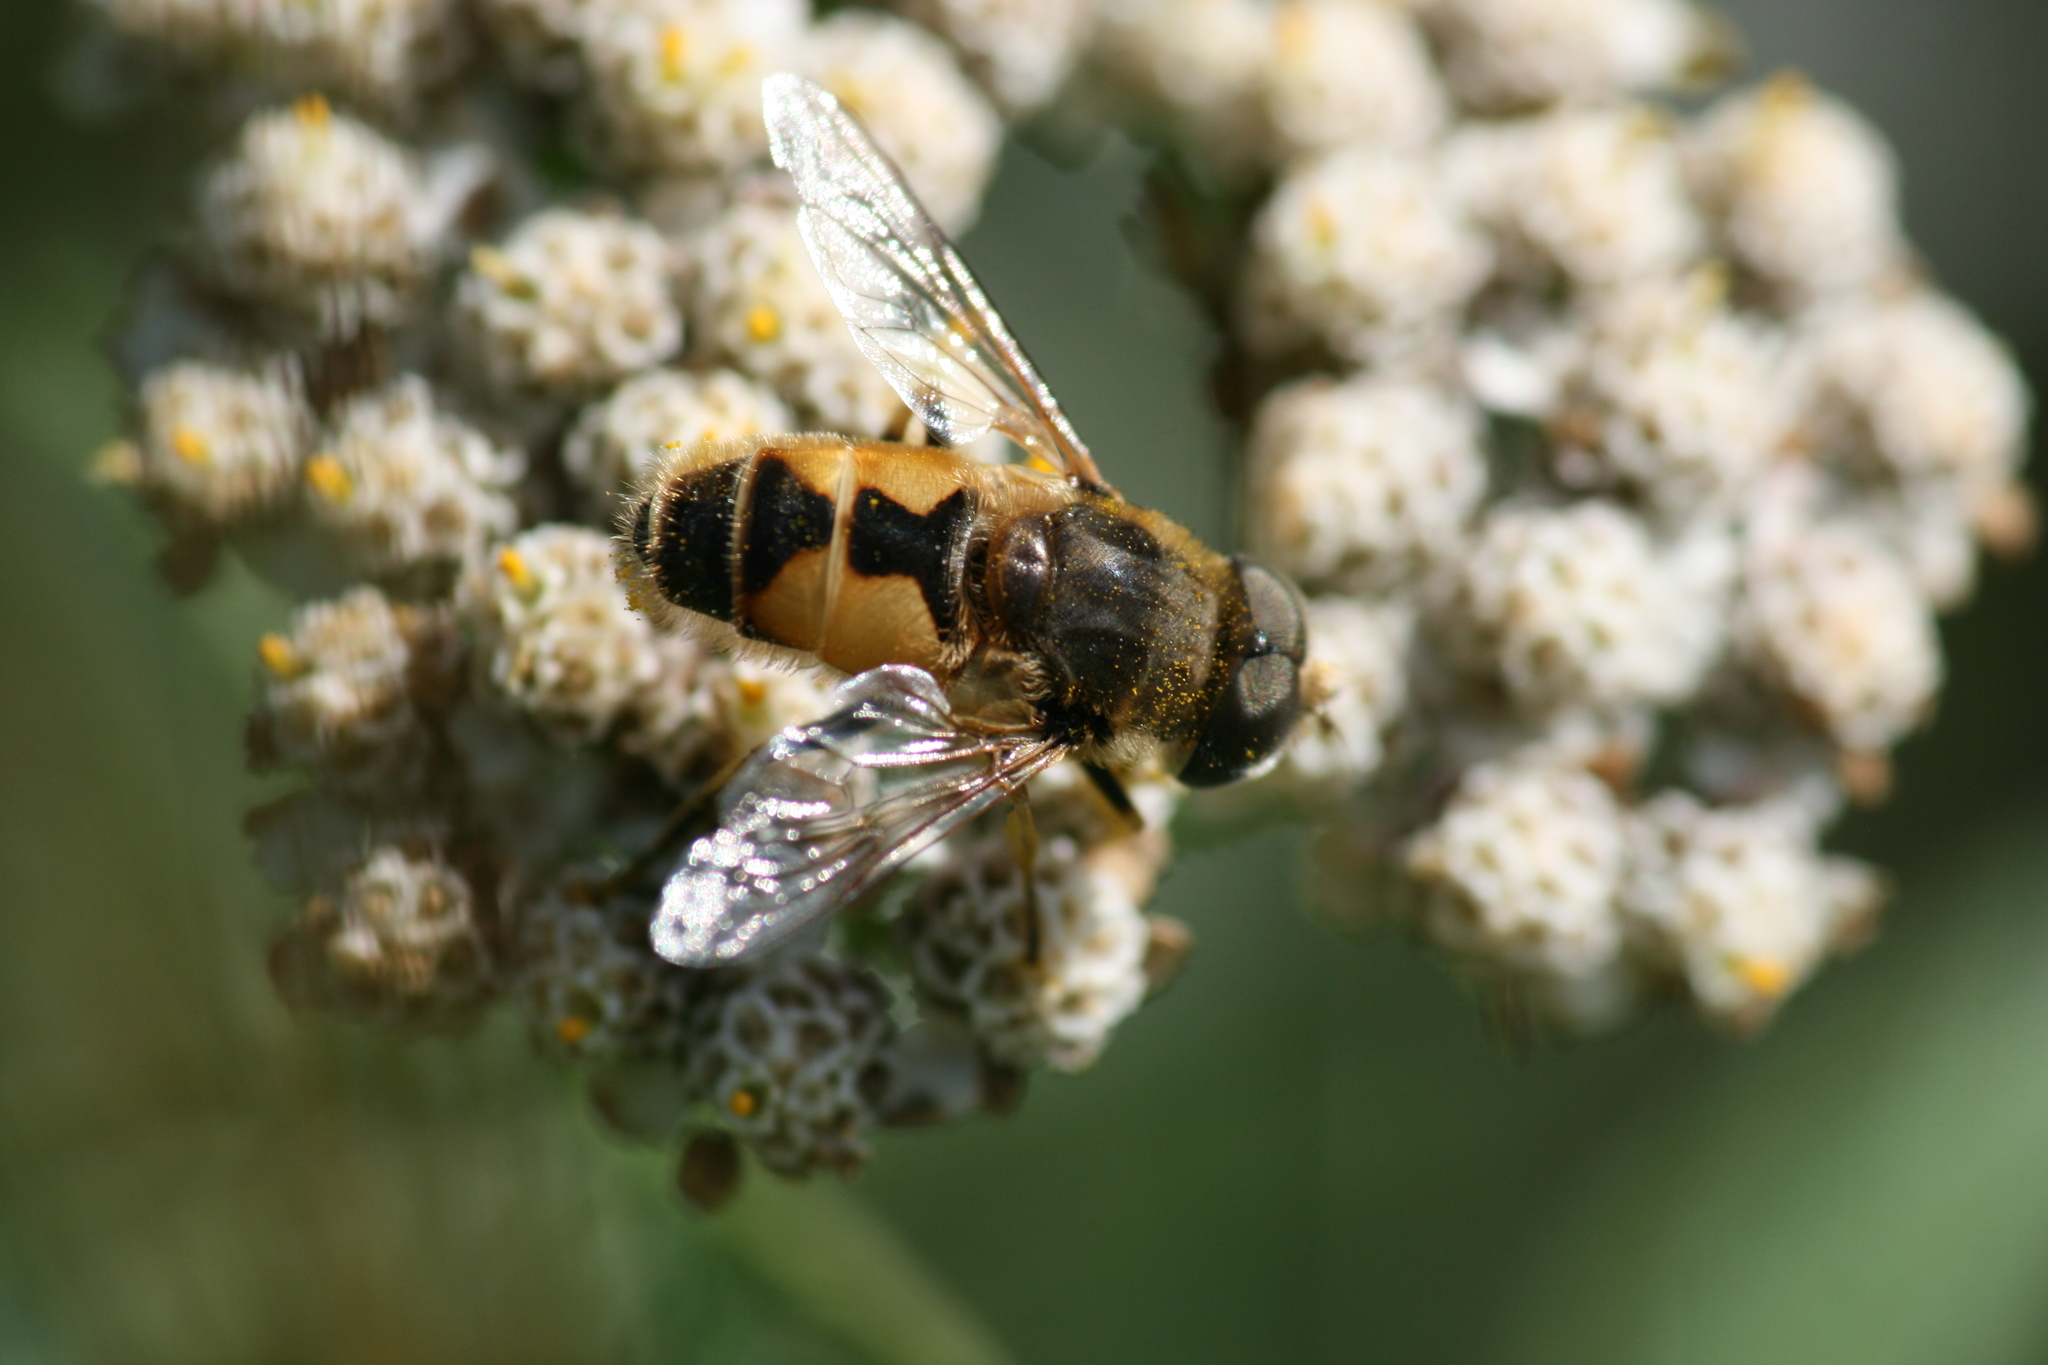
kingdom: Animalia
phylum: Arthropoda
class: Insecta
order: Diptera
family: Syrphidae
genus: Eristalis
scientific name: Eristalis arbustorum
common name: Hover fly
